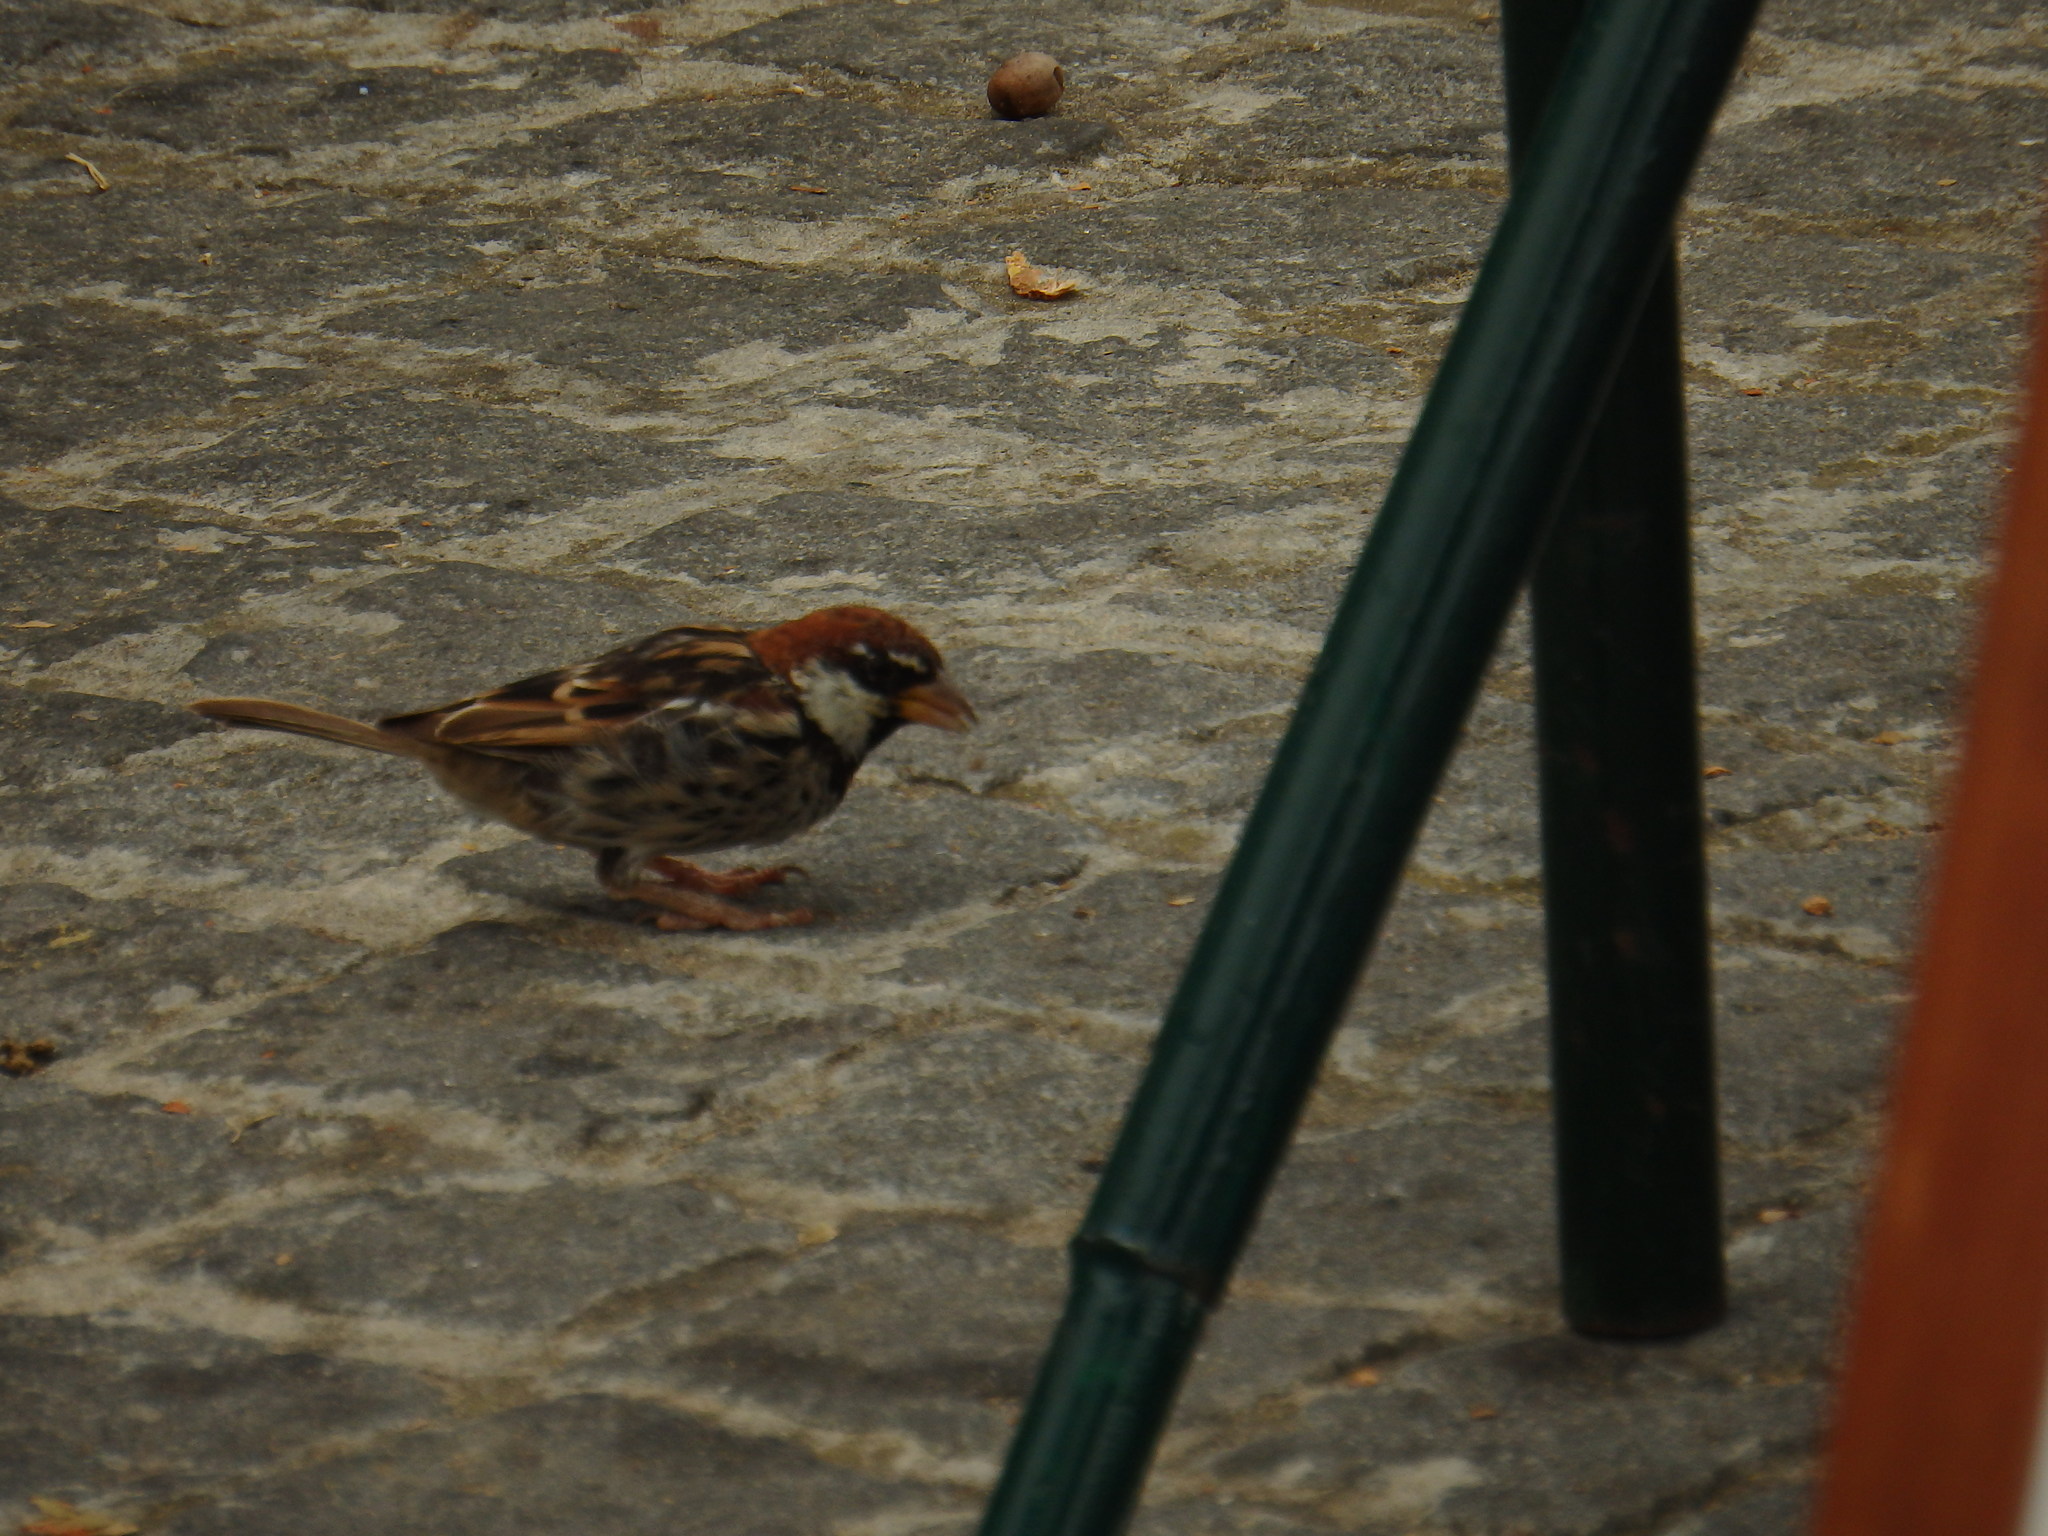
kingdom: Animalia
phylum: Chordata
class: Aves
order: Passeriformes
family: Passeridae
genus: Passer
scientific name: Passer hispaniolensis
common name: Spanish sparrow
